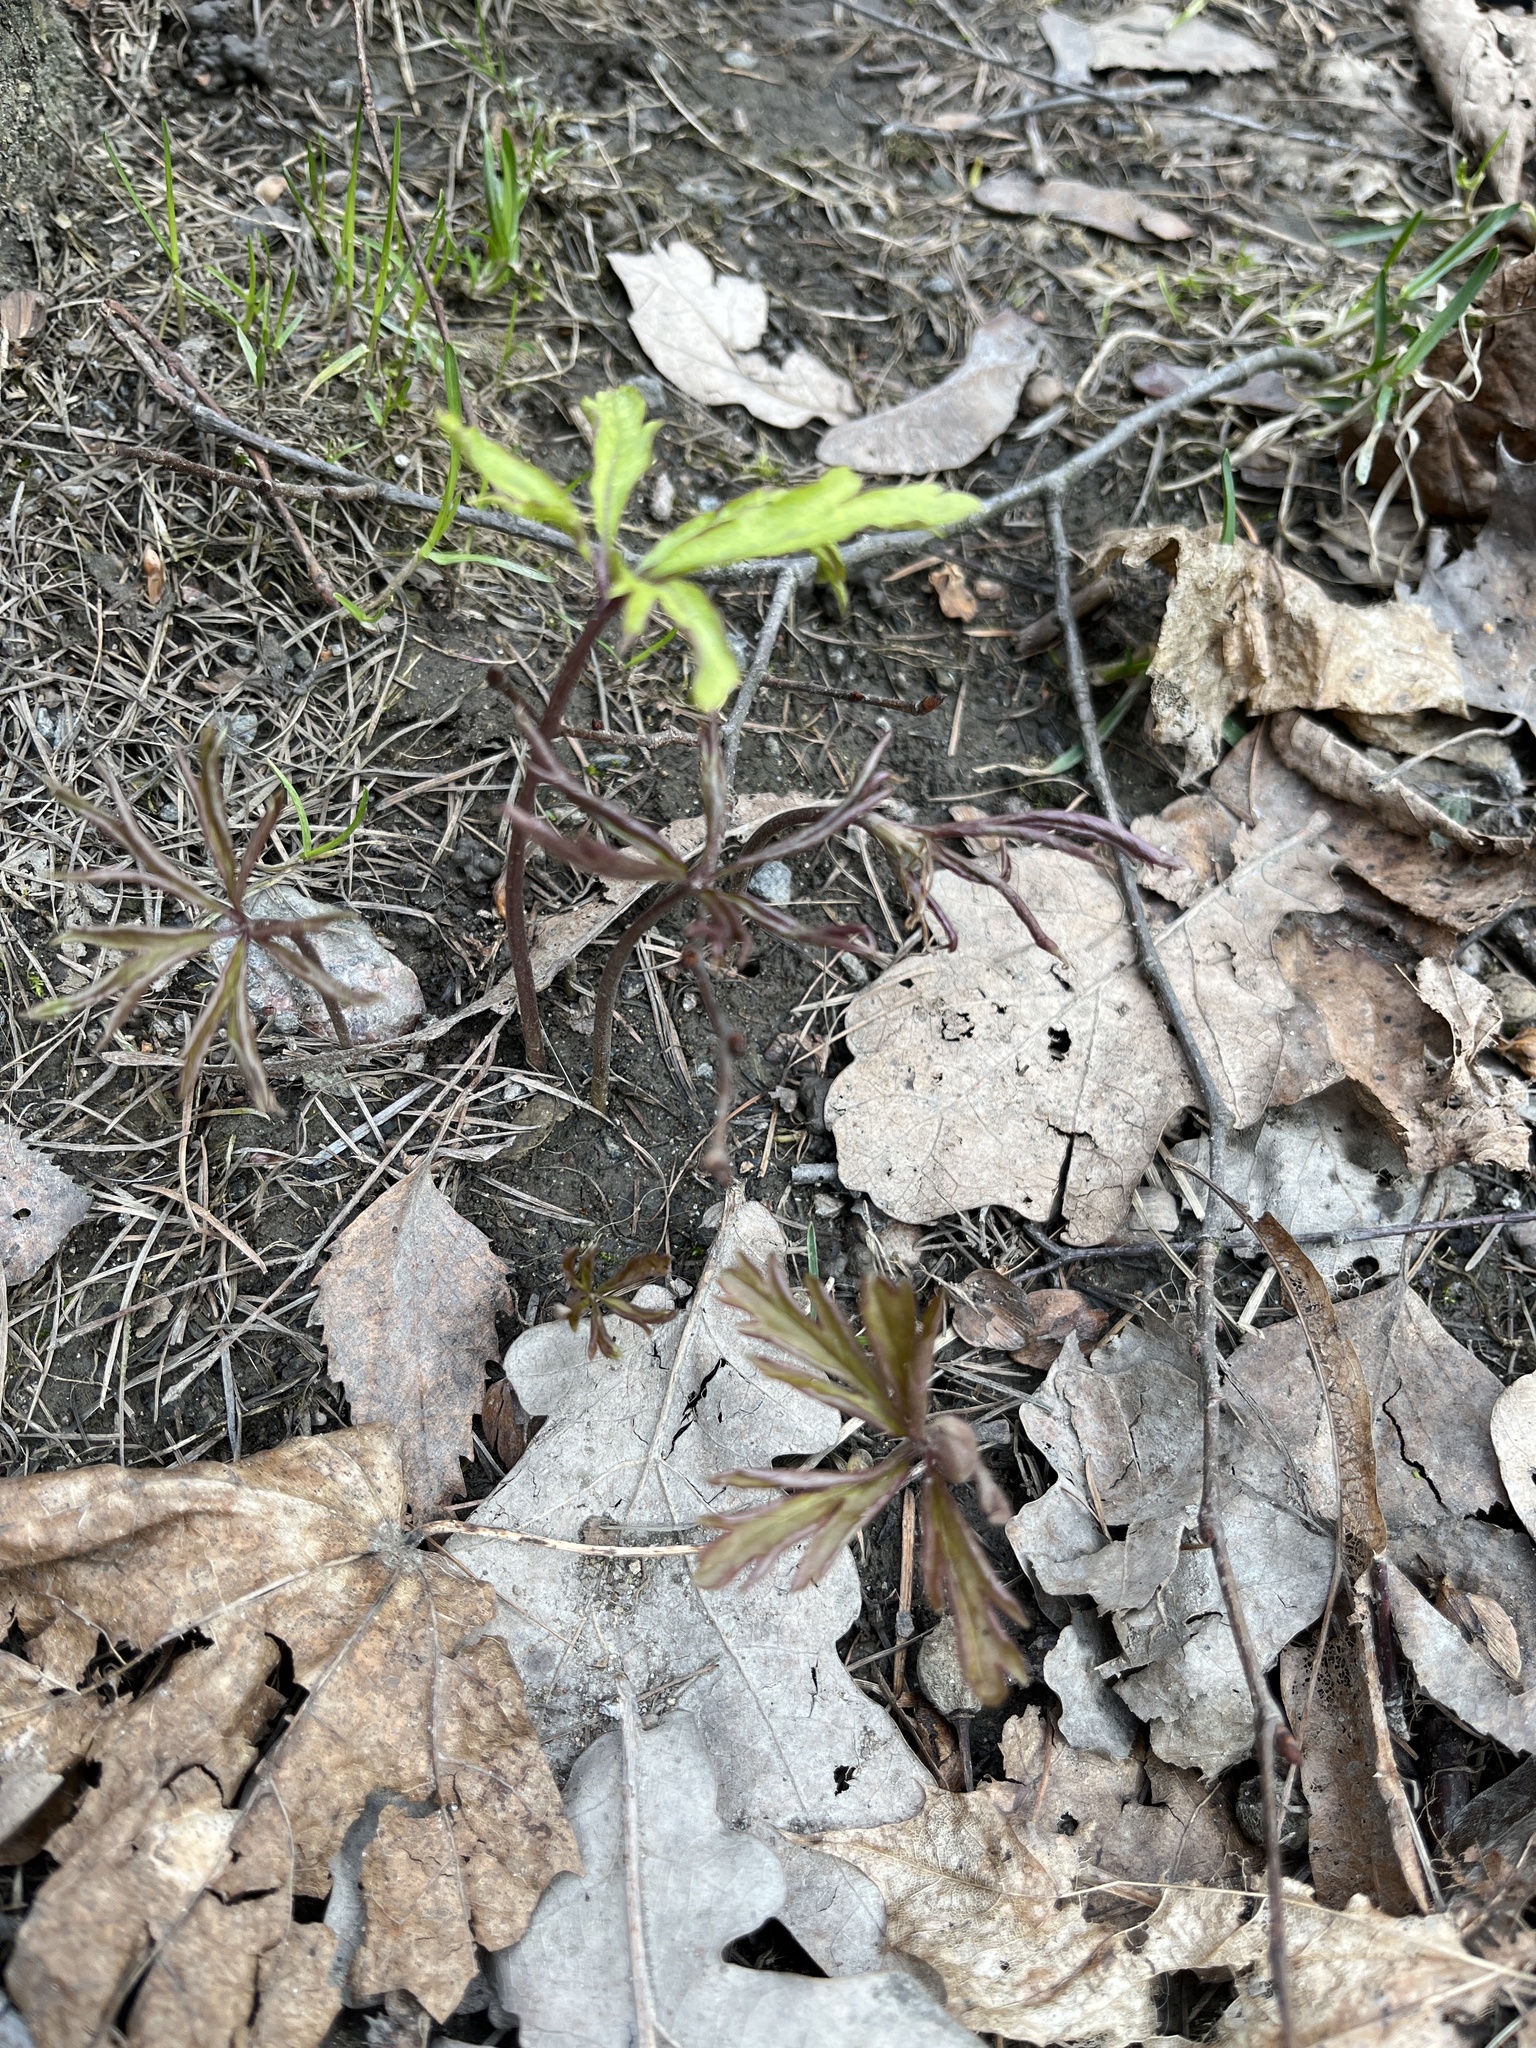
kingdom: Plantae
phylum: Tracheophyta
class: Magnoliopsida
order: Ranunculales
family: Ranunculaceae
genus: Anemone
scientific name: Anemone ranunculoides
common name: Yellow anemone
